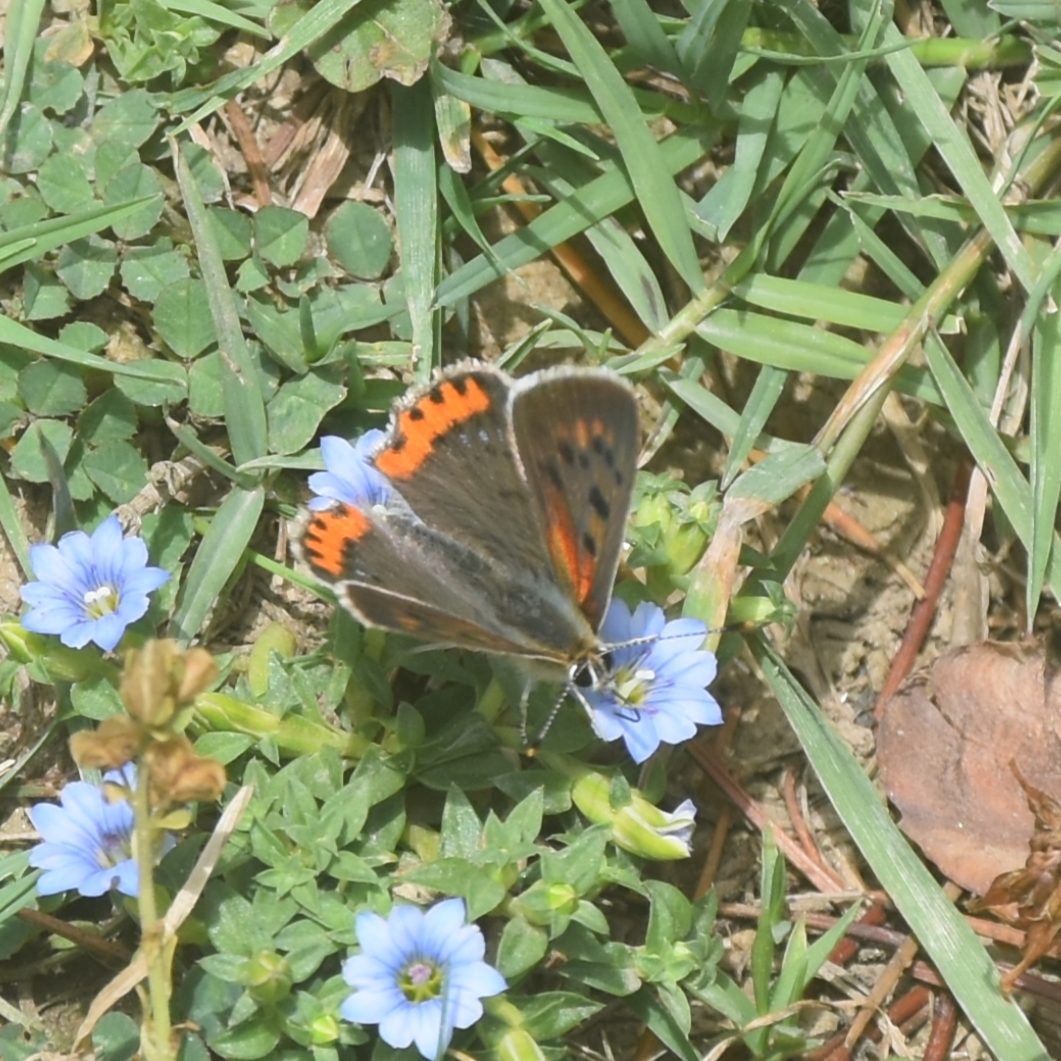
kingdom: Animalia
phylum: Arthropoda
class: Insecta
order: Lepidoptera
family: Lycaenidae
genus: Lycaena
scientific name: Lycaena phlaeas
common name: Small copper
